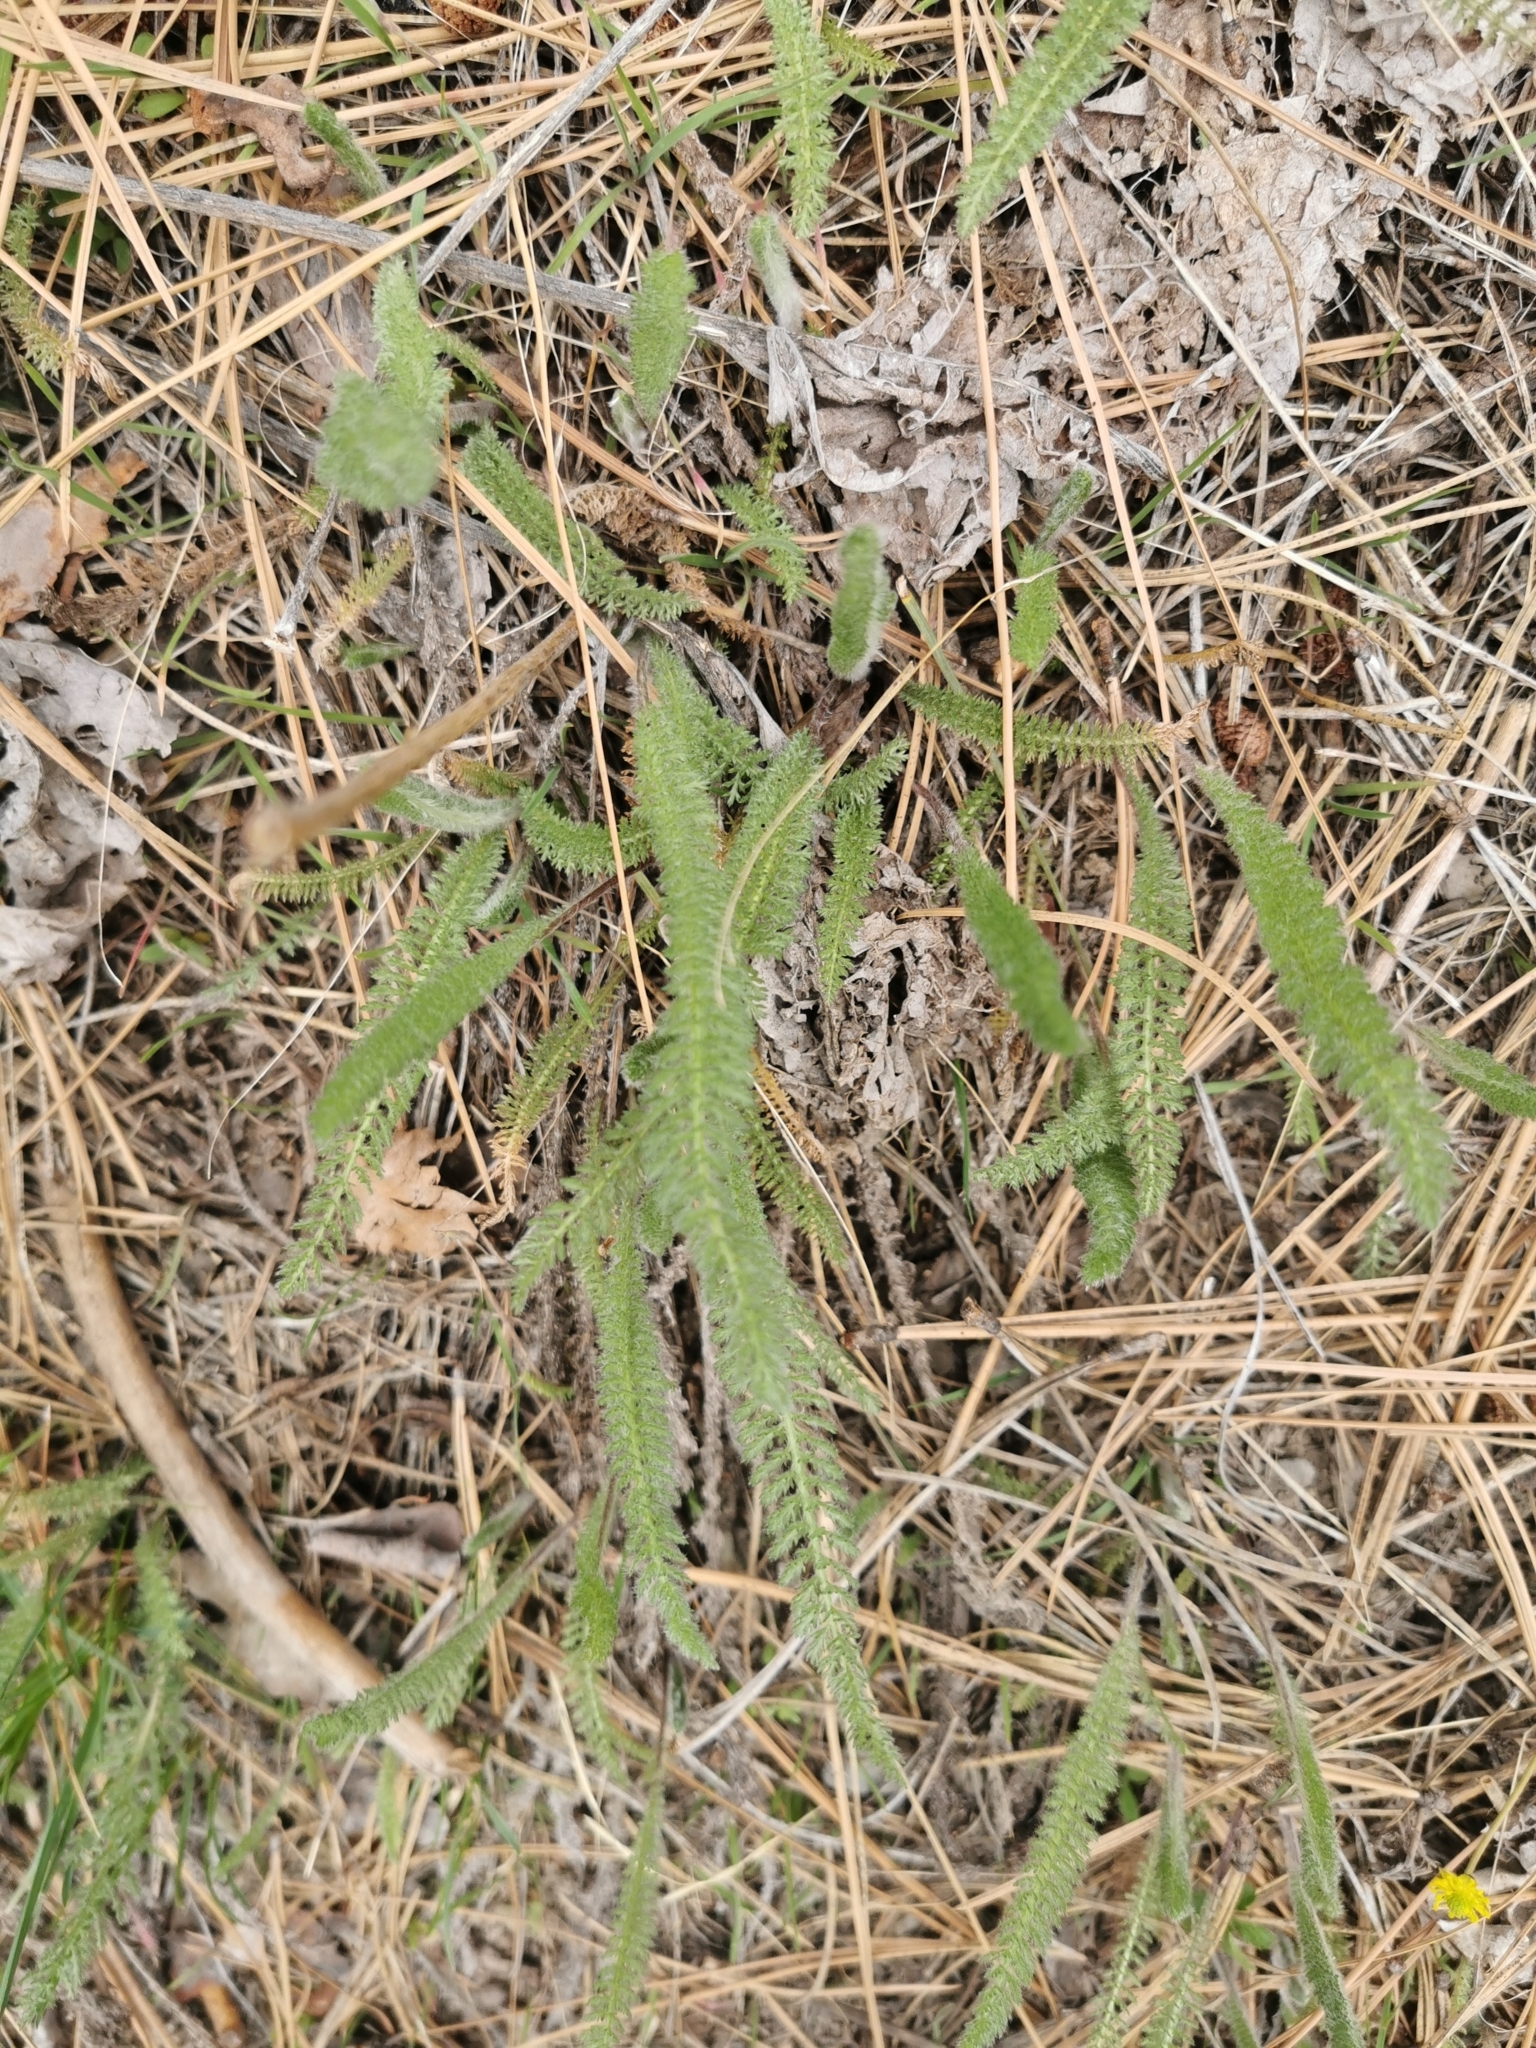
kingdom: Plantae
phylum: Tracheophyta
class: Magnoliopsida
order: Asterales
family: Asteraceae
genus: Achillea
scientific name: Achillea millefolium
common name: Yarrow
